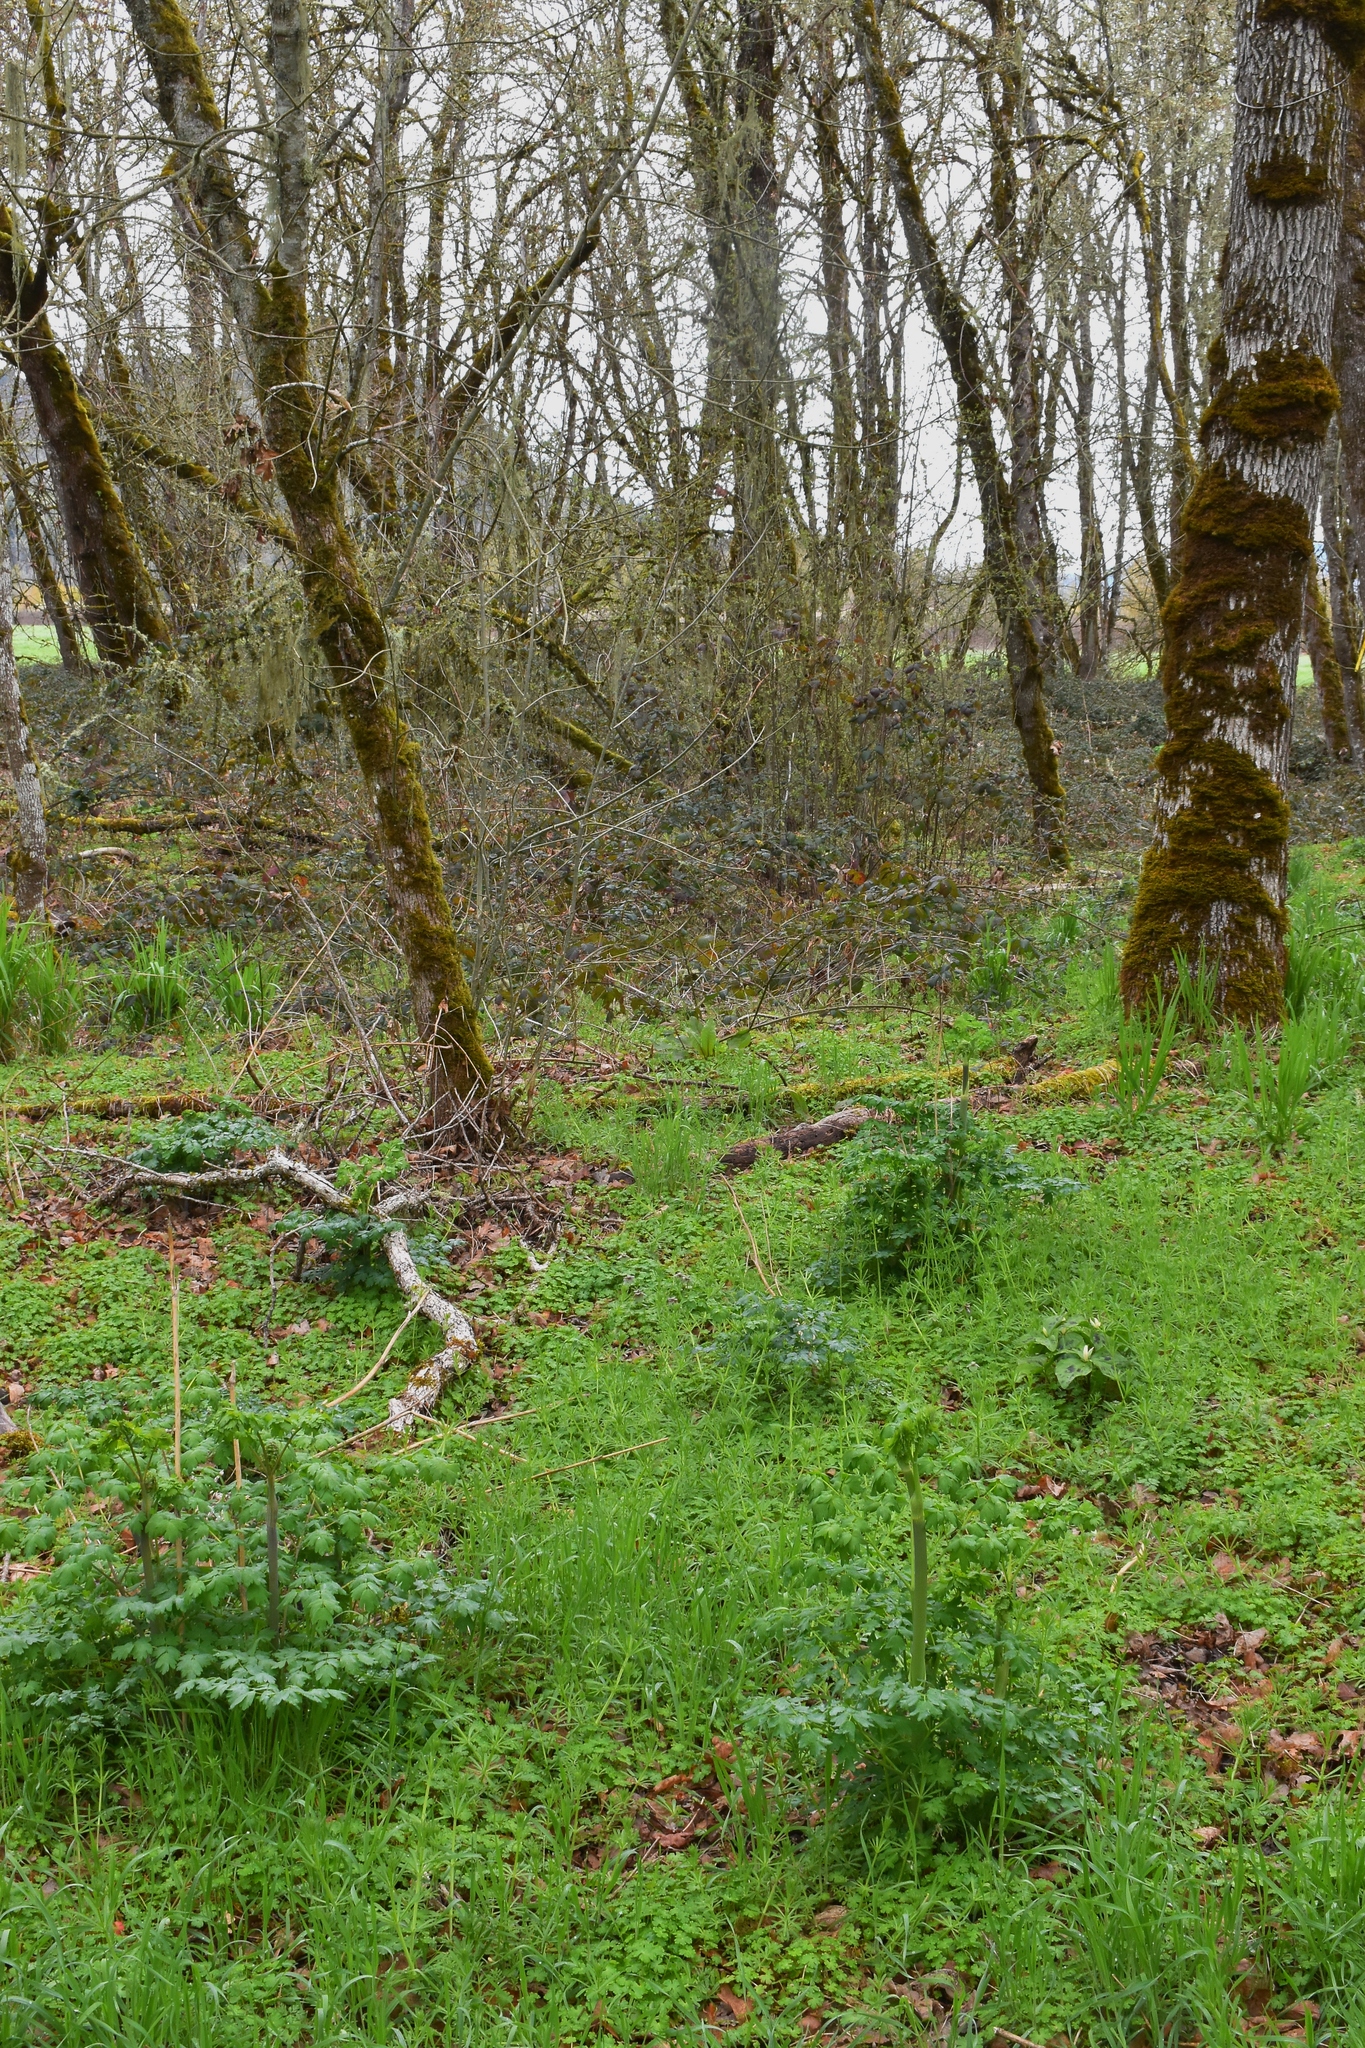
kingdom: Plantae
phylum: Tracheophyta
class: Magnoliopsida
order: Ranunculales
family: Ranunculaceae
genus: Thalictrum
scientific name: Thalictrum fendleri
